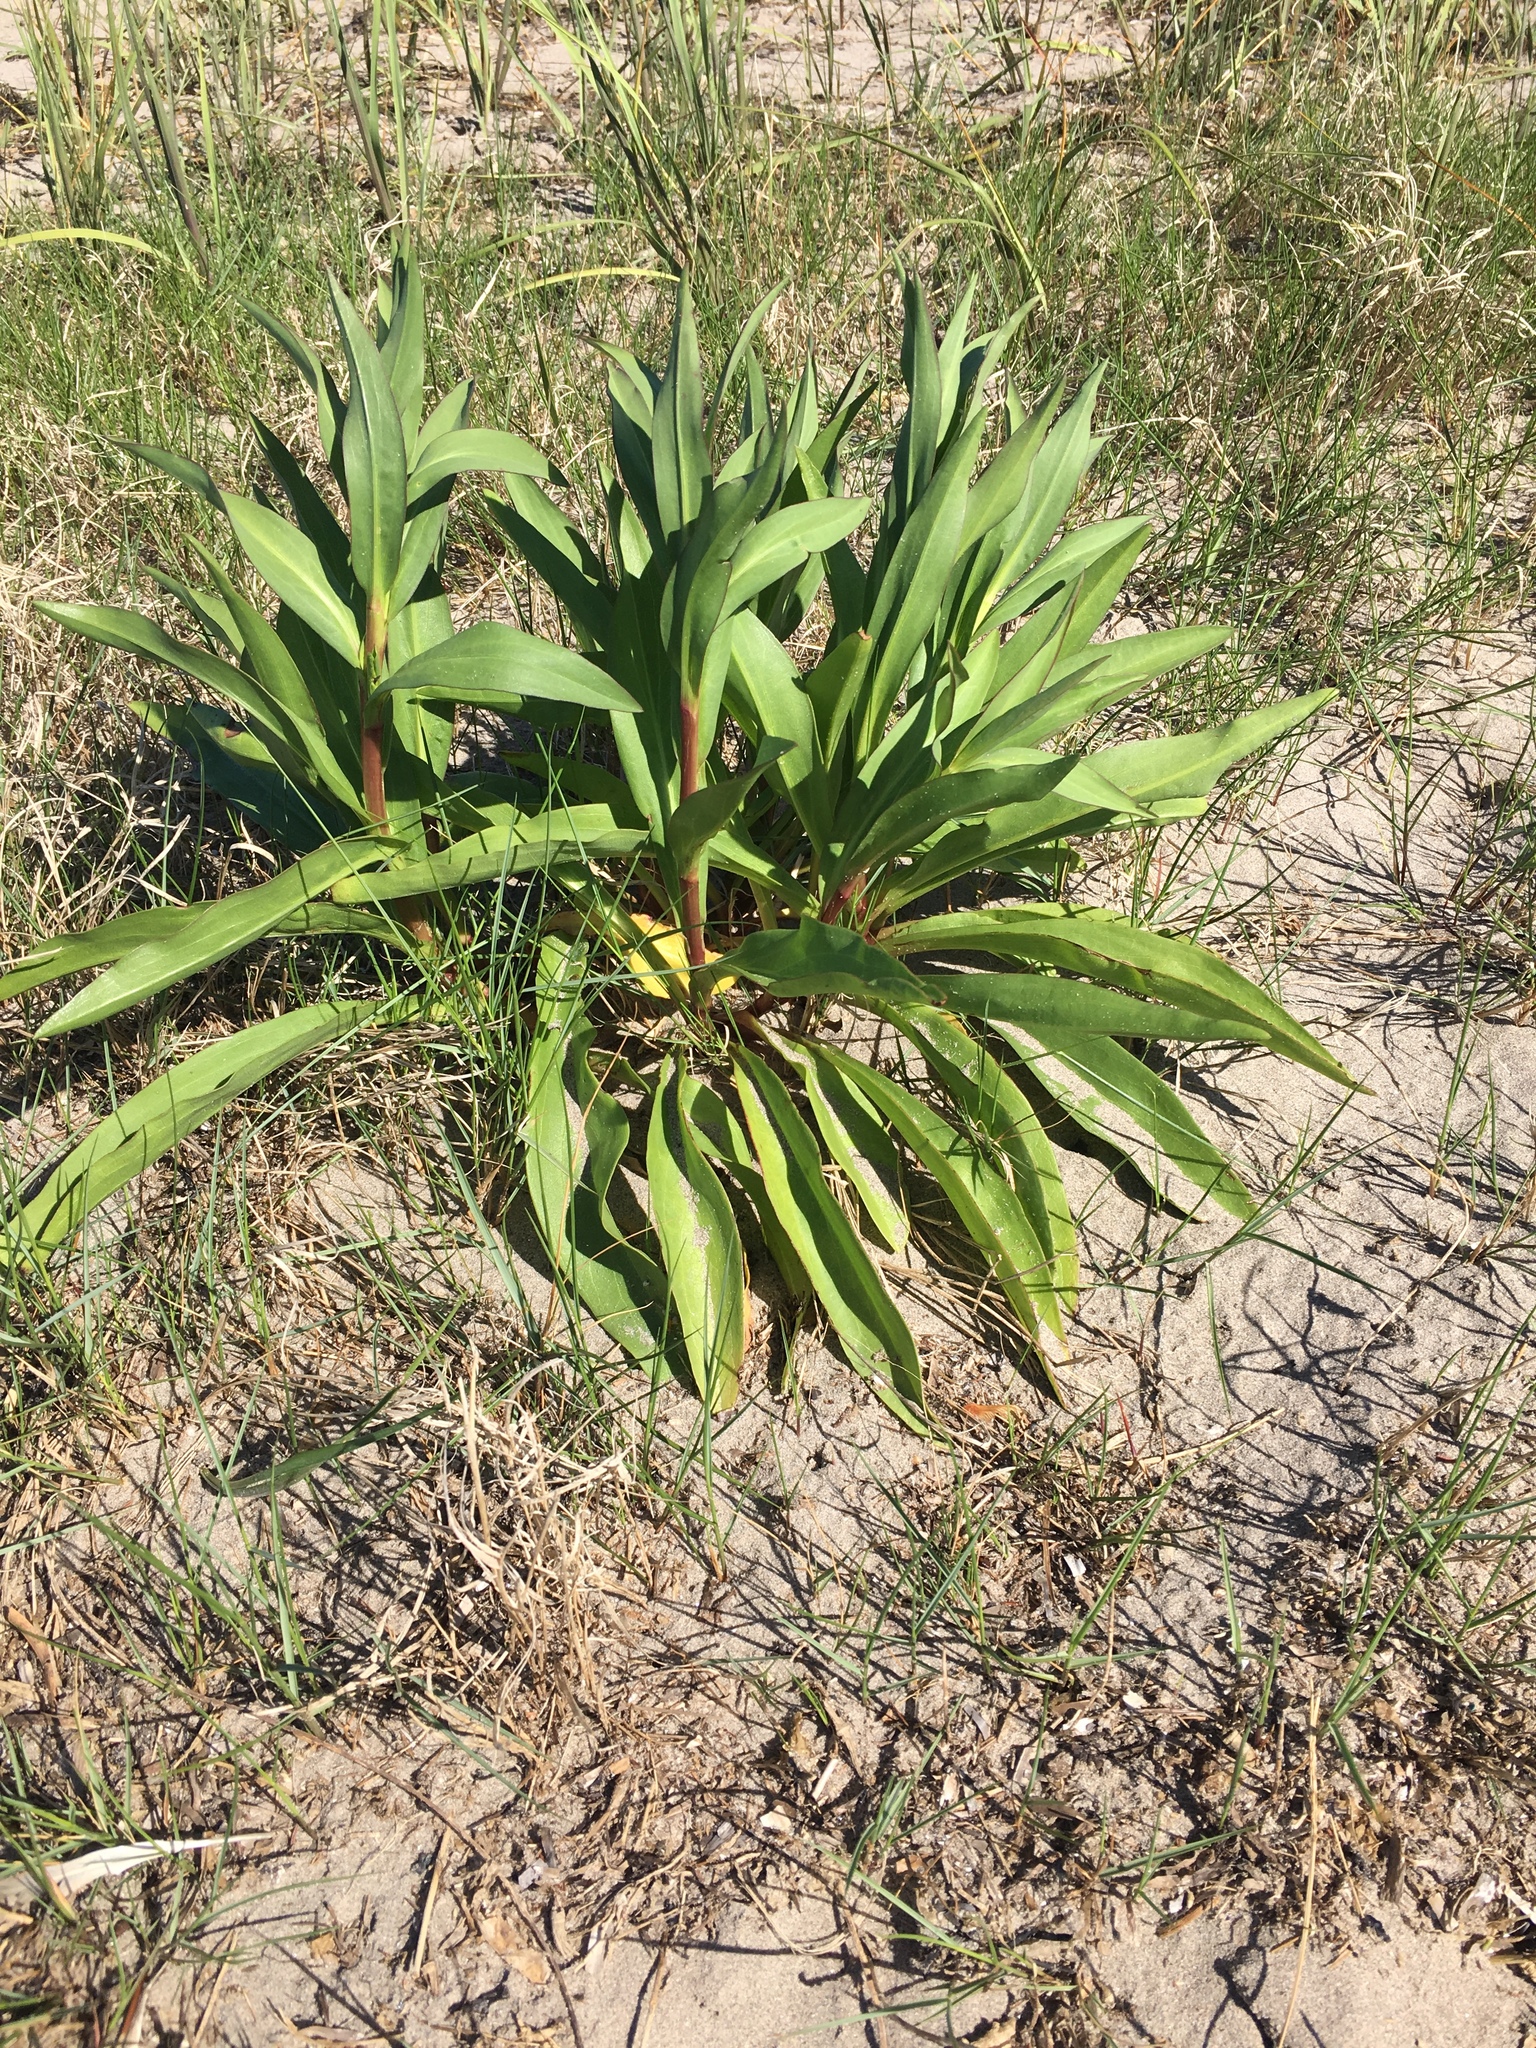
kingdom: Plantae
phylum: Tracheophyta
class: Magnoliopsida
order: Asterales
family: Asteraceae
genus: Solidago
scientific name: Solidago sempervirens
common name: Salt-marsh goldenrod
